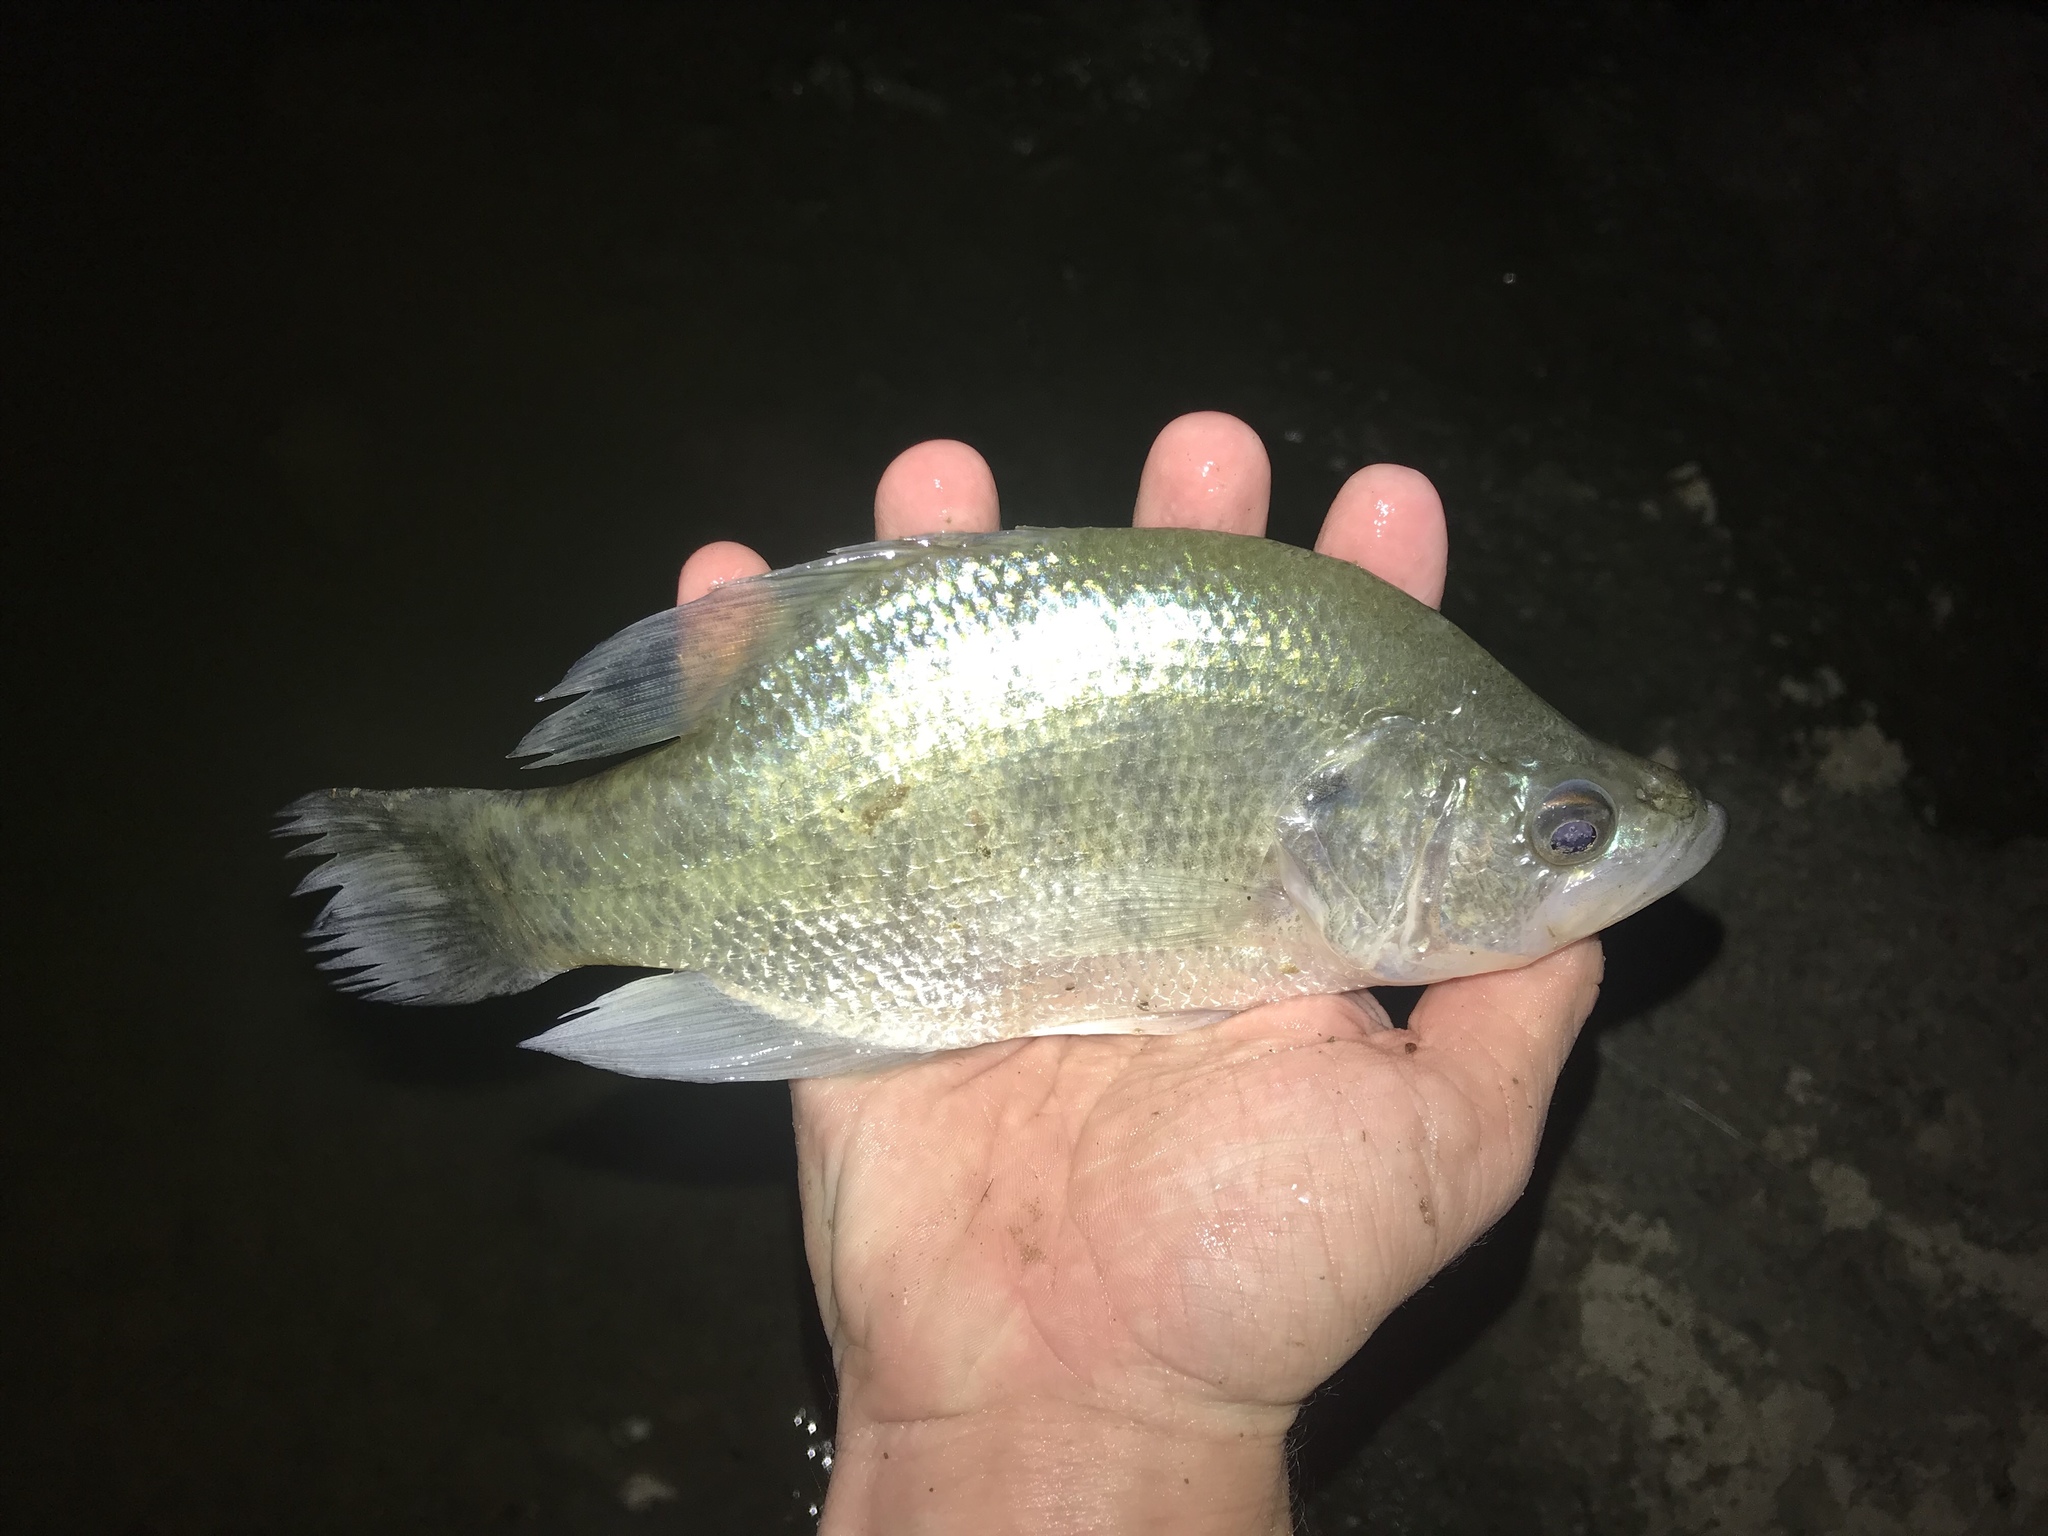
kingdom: Animalia
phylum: Chordata
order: Perciformes
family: Centrarchidae
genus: Pomoxis
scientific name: Pomoxis annularis
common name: White crappie
